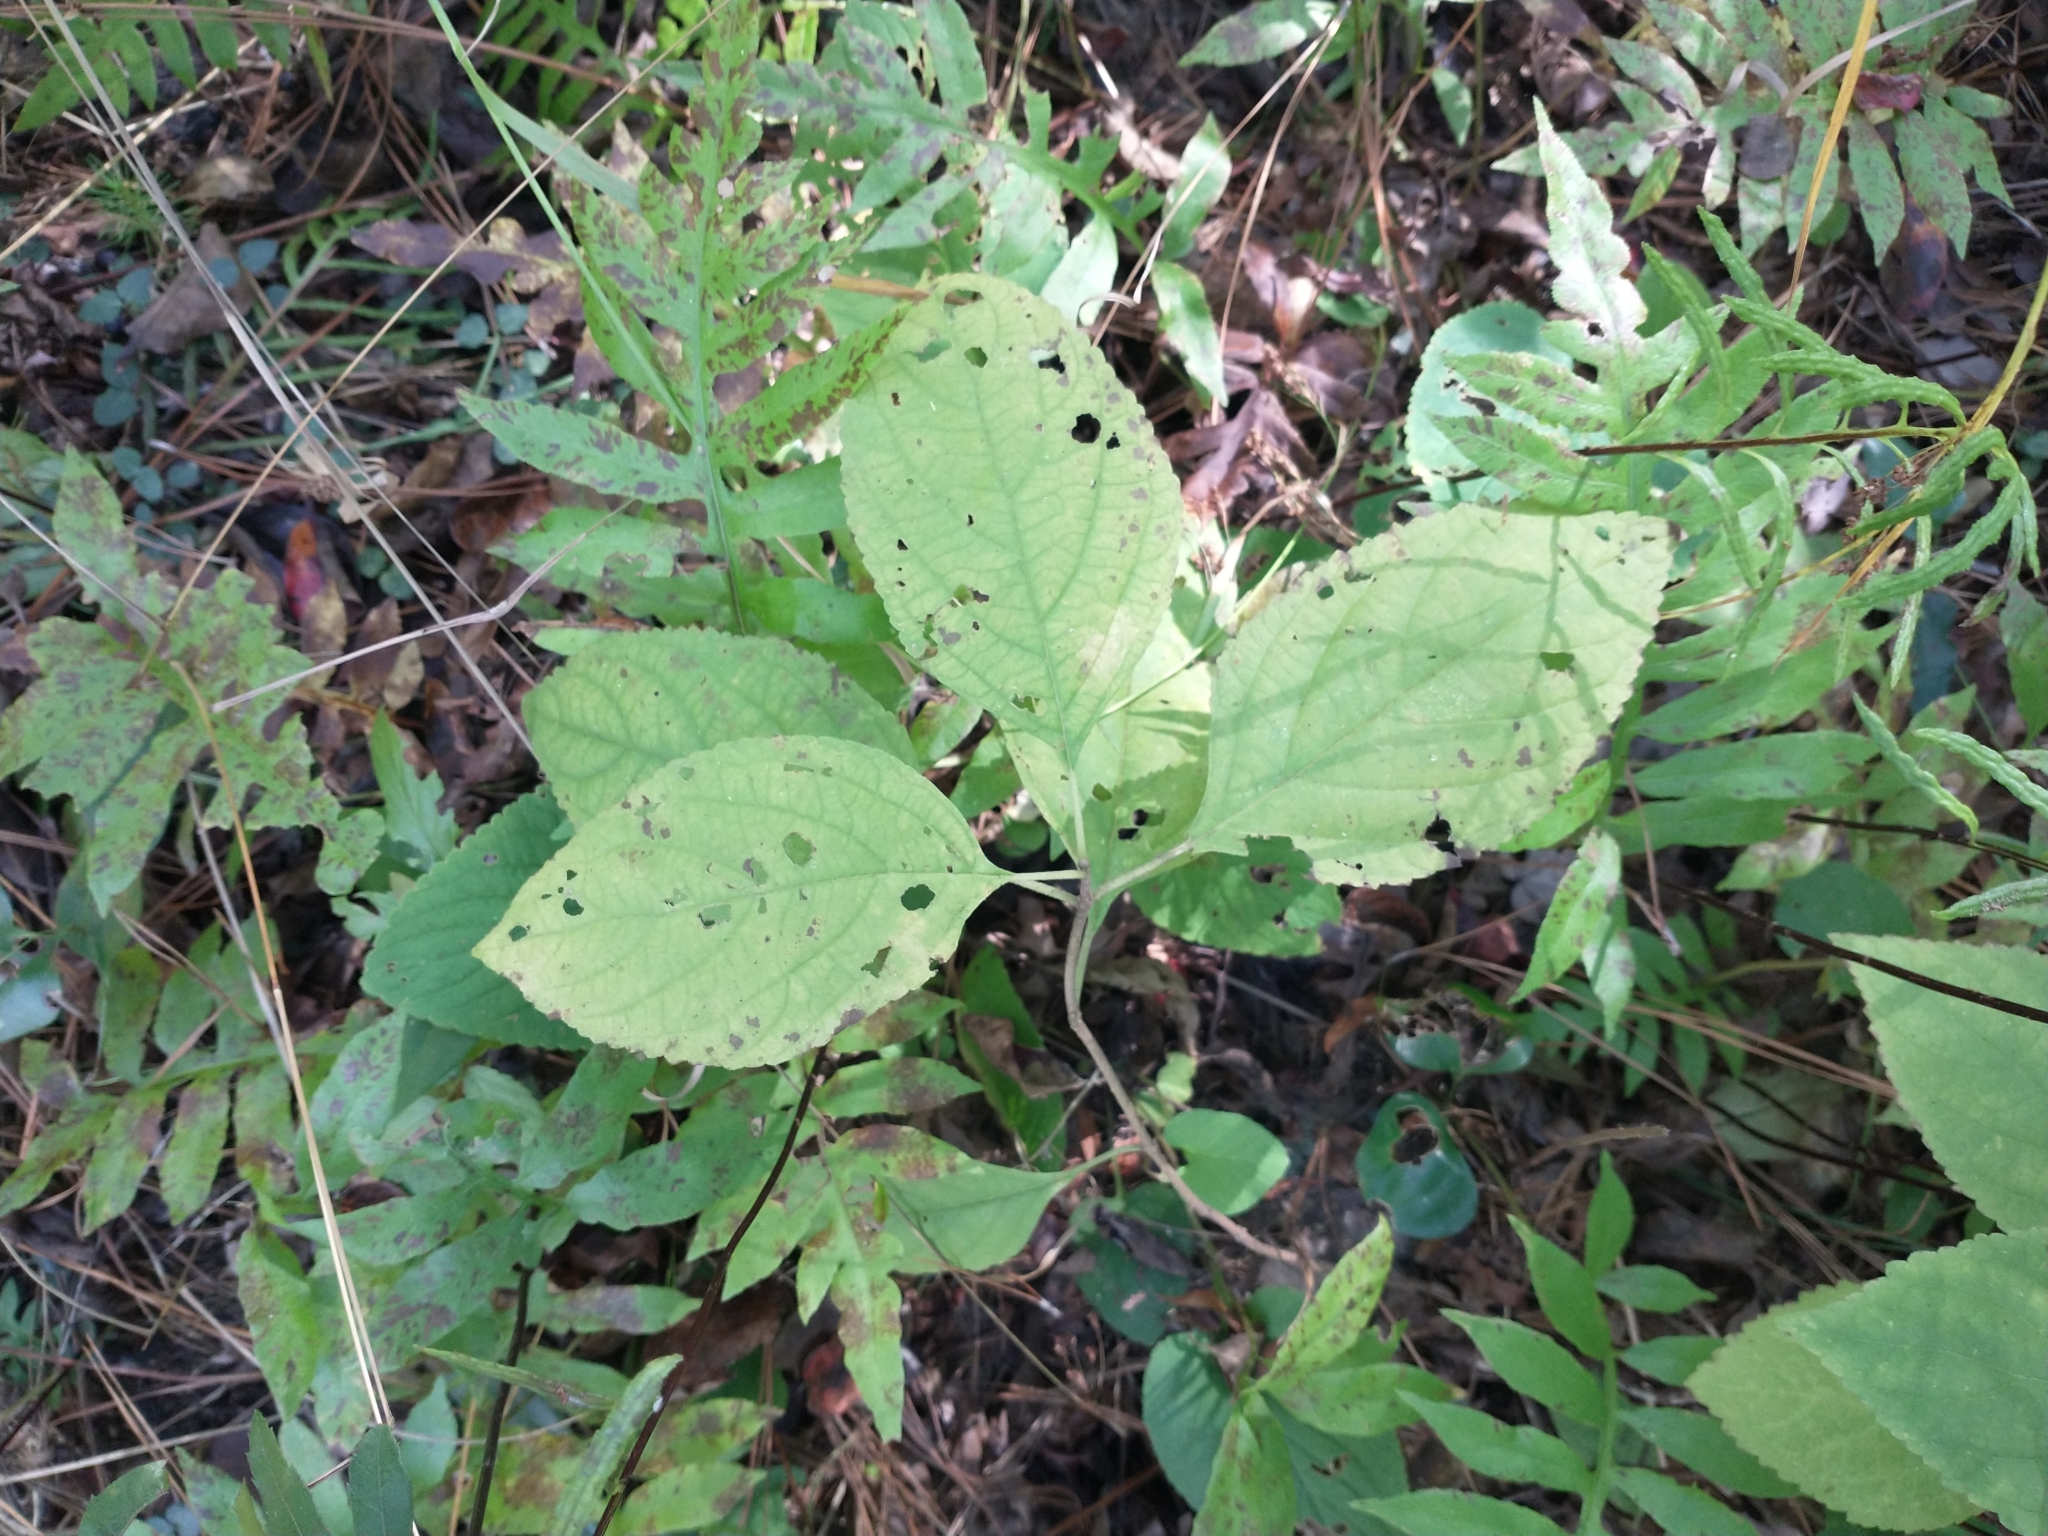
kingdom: Plantae
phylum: Tracheophyta
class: Magnoliopsida
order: Lamiales
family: Lamiaceae
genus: Callicarpa
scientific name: Callicarpa americana
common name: American beautyberry
